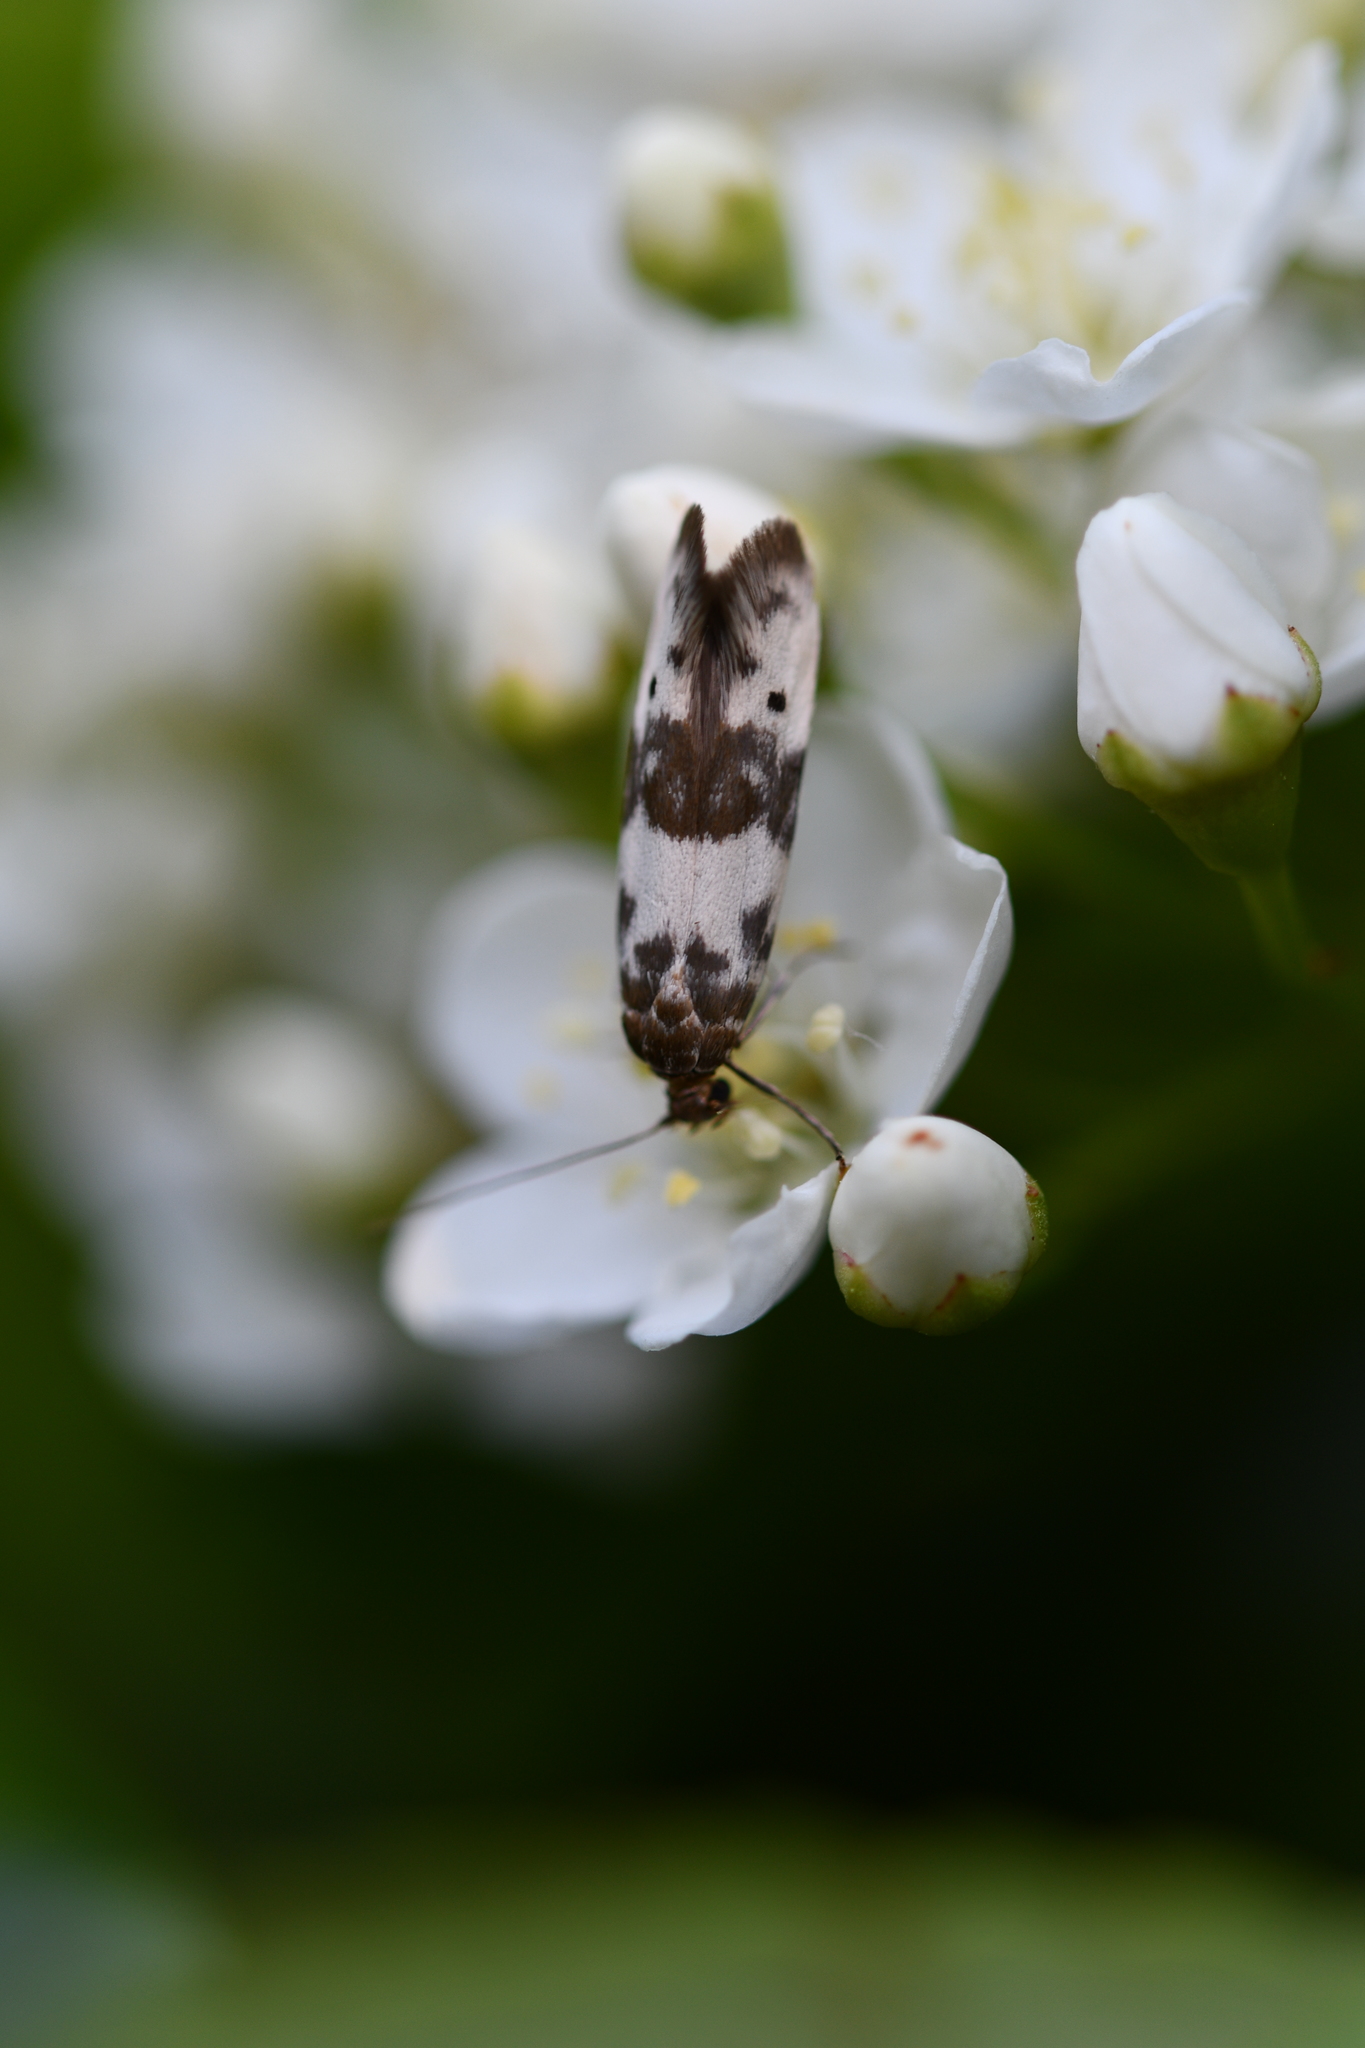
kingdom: Animalia
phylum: Arthropoda
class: Insecta
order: Lepidoptera
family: Scythrididae
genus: Enolmis
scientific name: Enolmis acanthella
